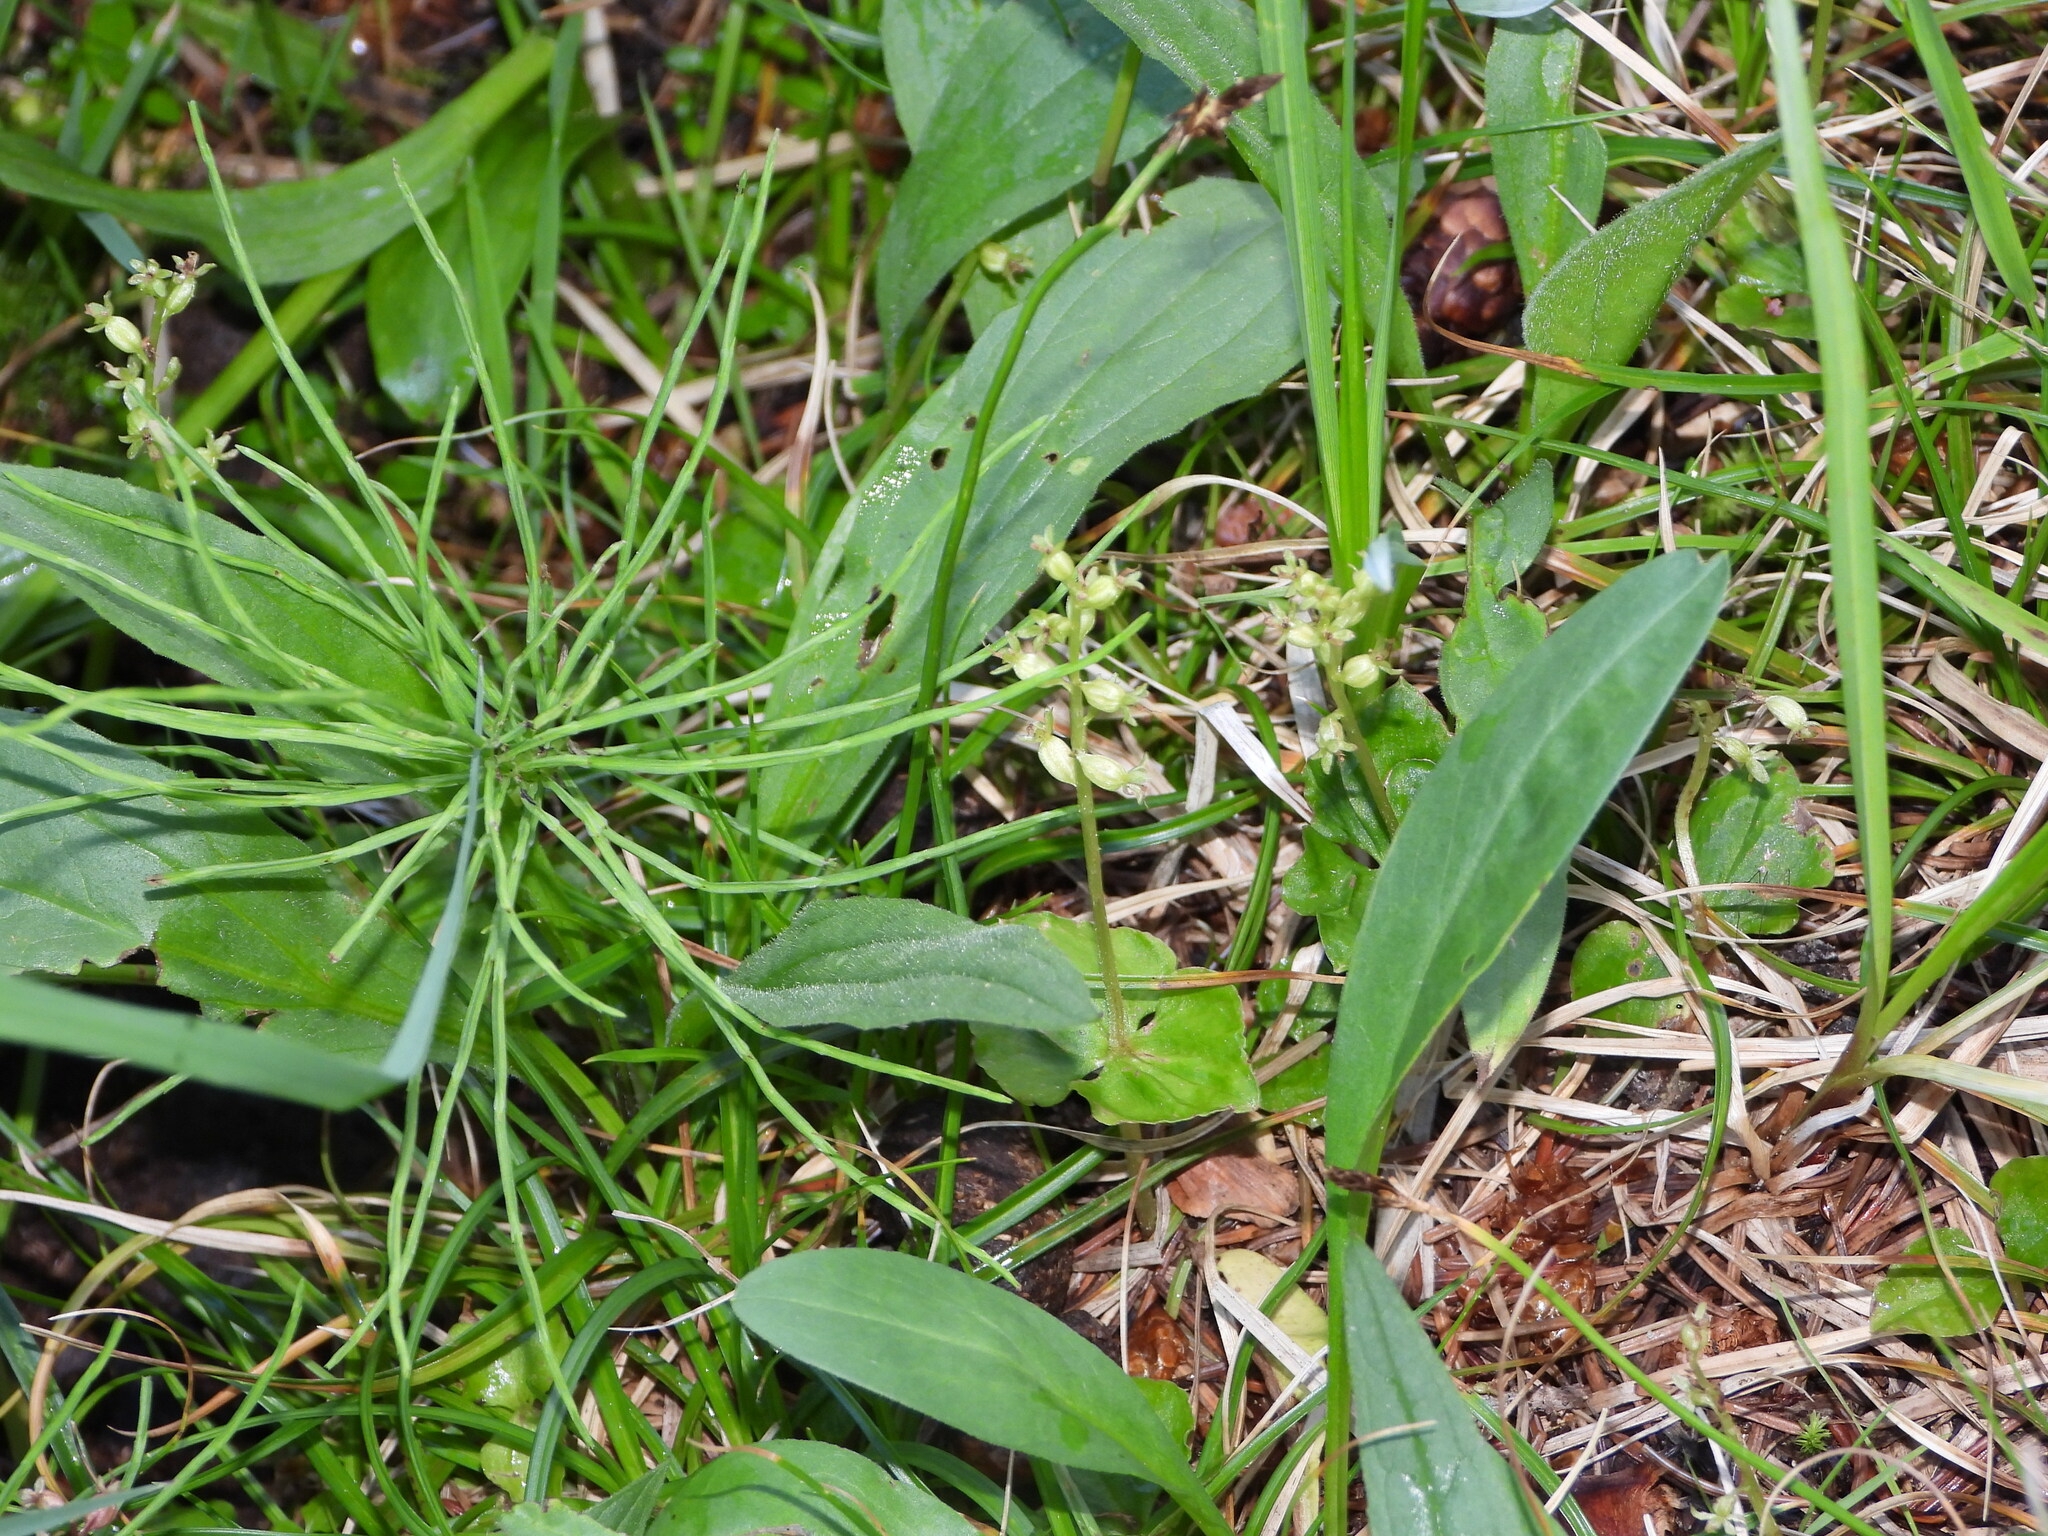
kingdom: Plantae
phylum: Tracheophyta
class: Liliopsida
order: Asparagales
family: Orchidaceae
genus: Neottia
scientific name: Neottia cordata
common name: Lesser twayblade
